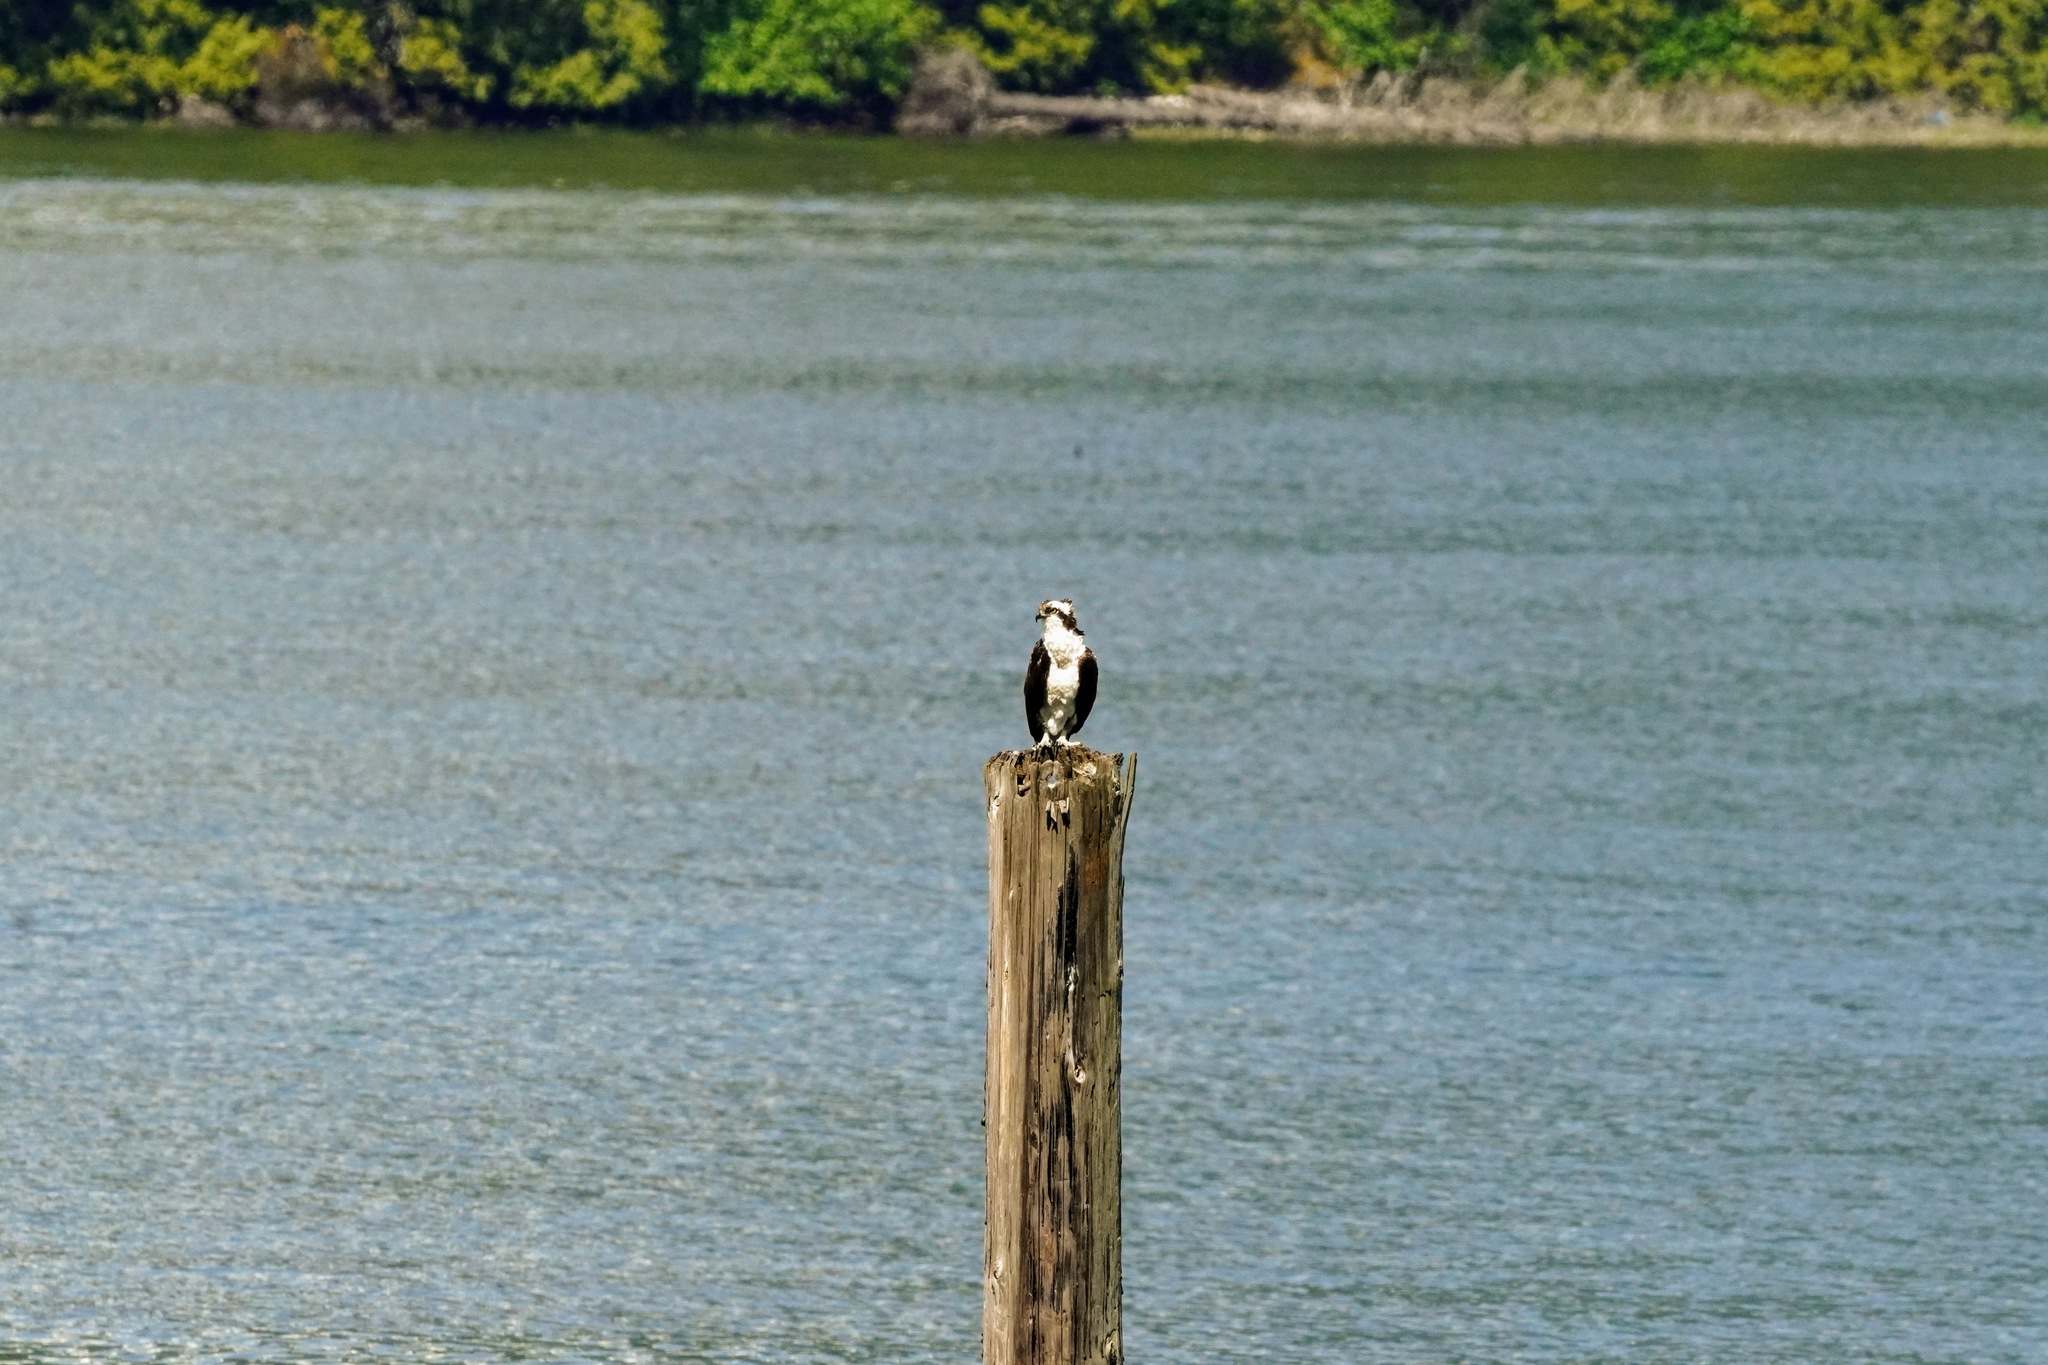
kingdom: Animalia
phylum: Chordata
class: Aves
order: Accipitriformes
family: Pandionidae
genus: Pandion
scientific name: Pandion haliaetus
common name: Osprey
